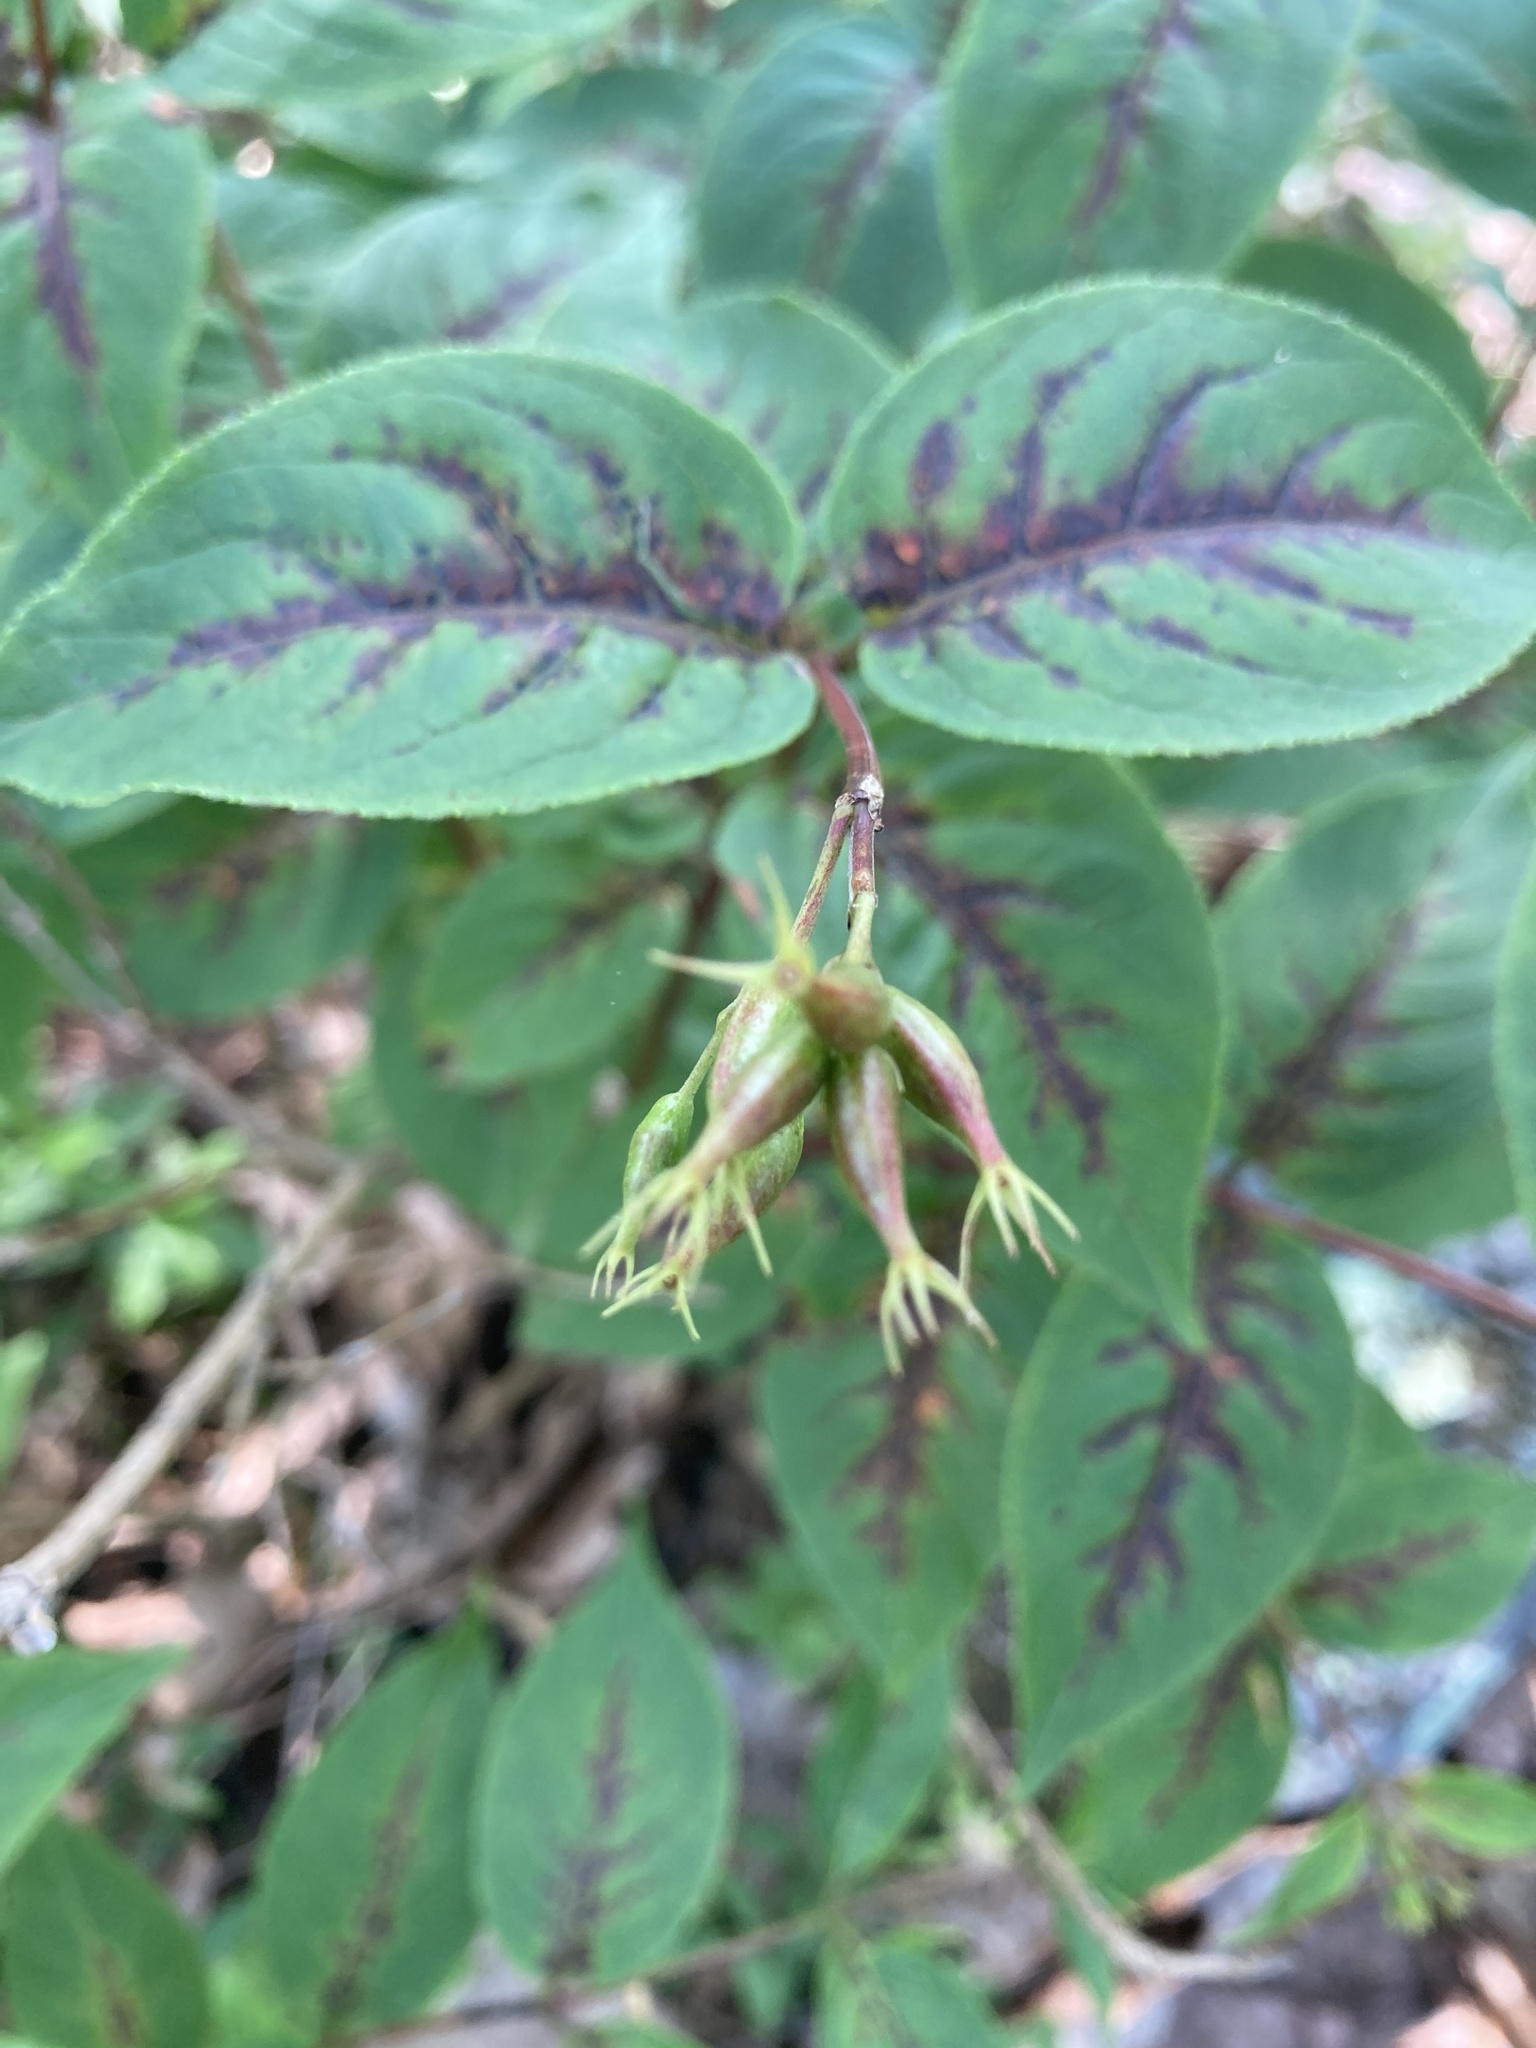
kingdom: Plantae
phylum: Tracheophyta
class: Magnoliopsida
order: Dipsacales
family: Caprifoliaceae
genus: Diervilla
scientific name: Diervilla lonicera
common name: Bush-honeysuckle
